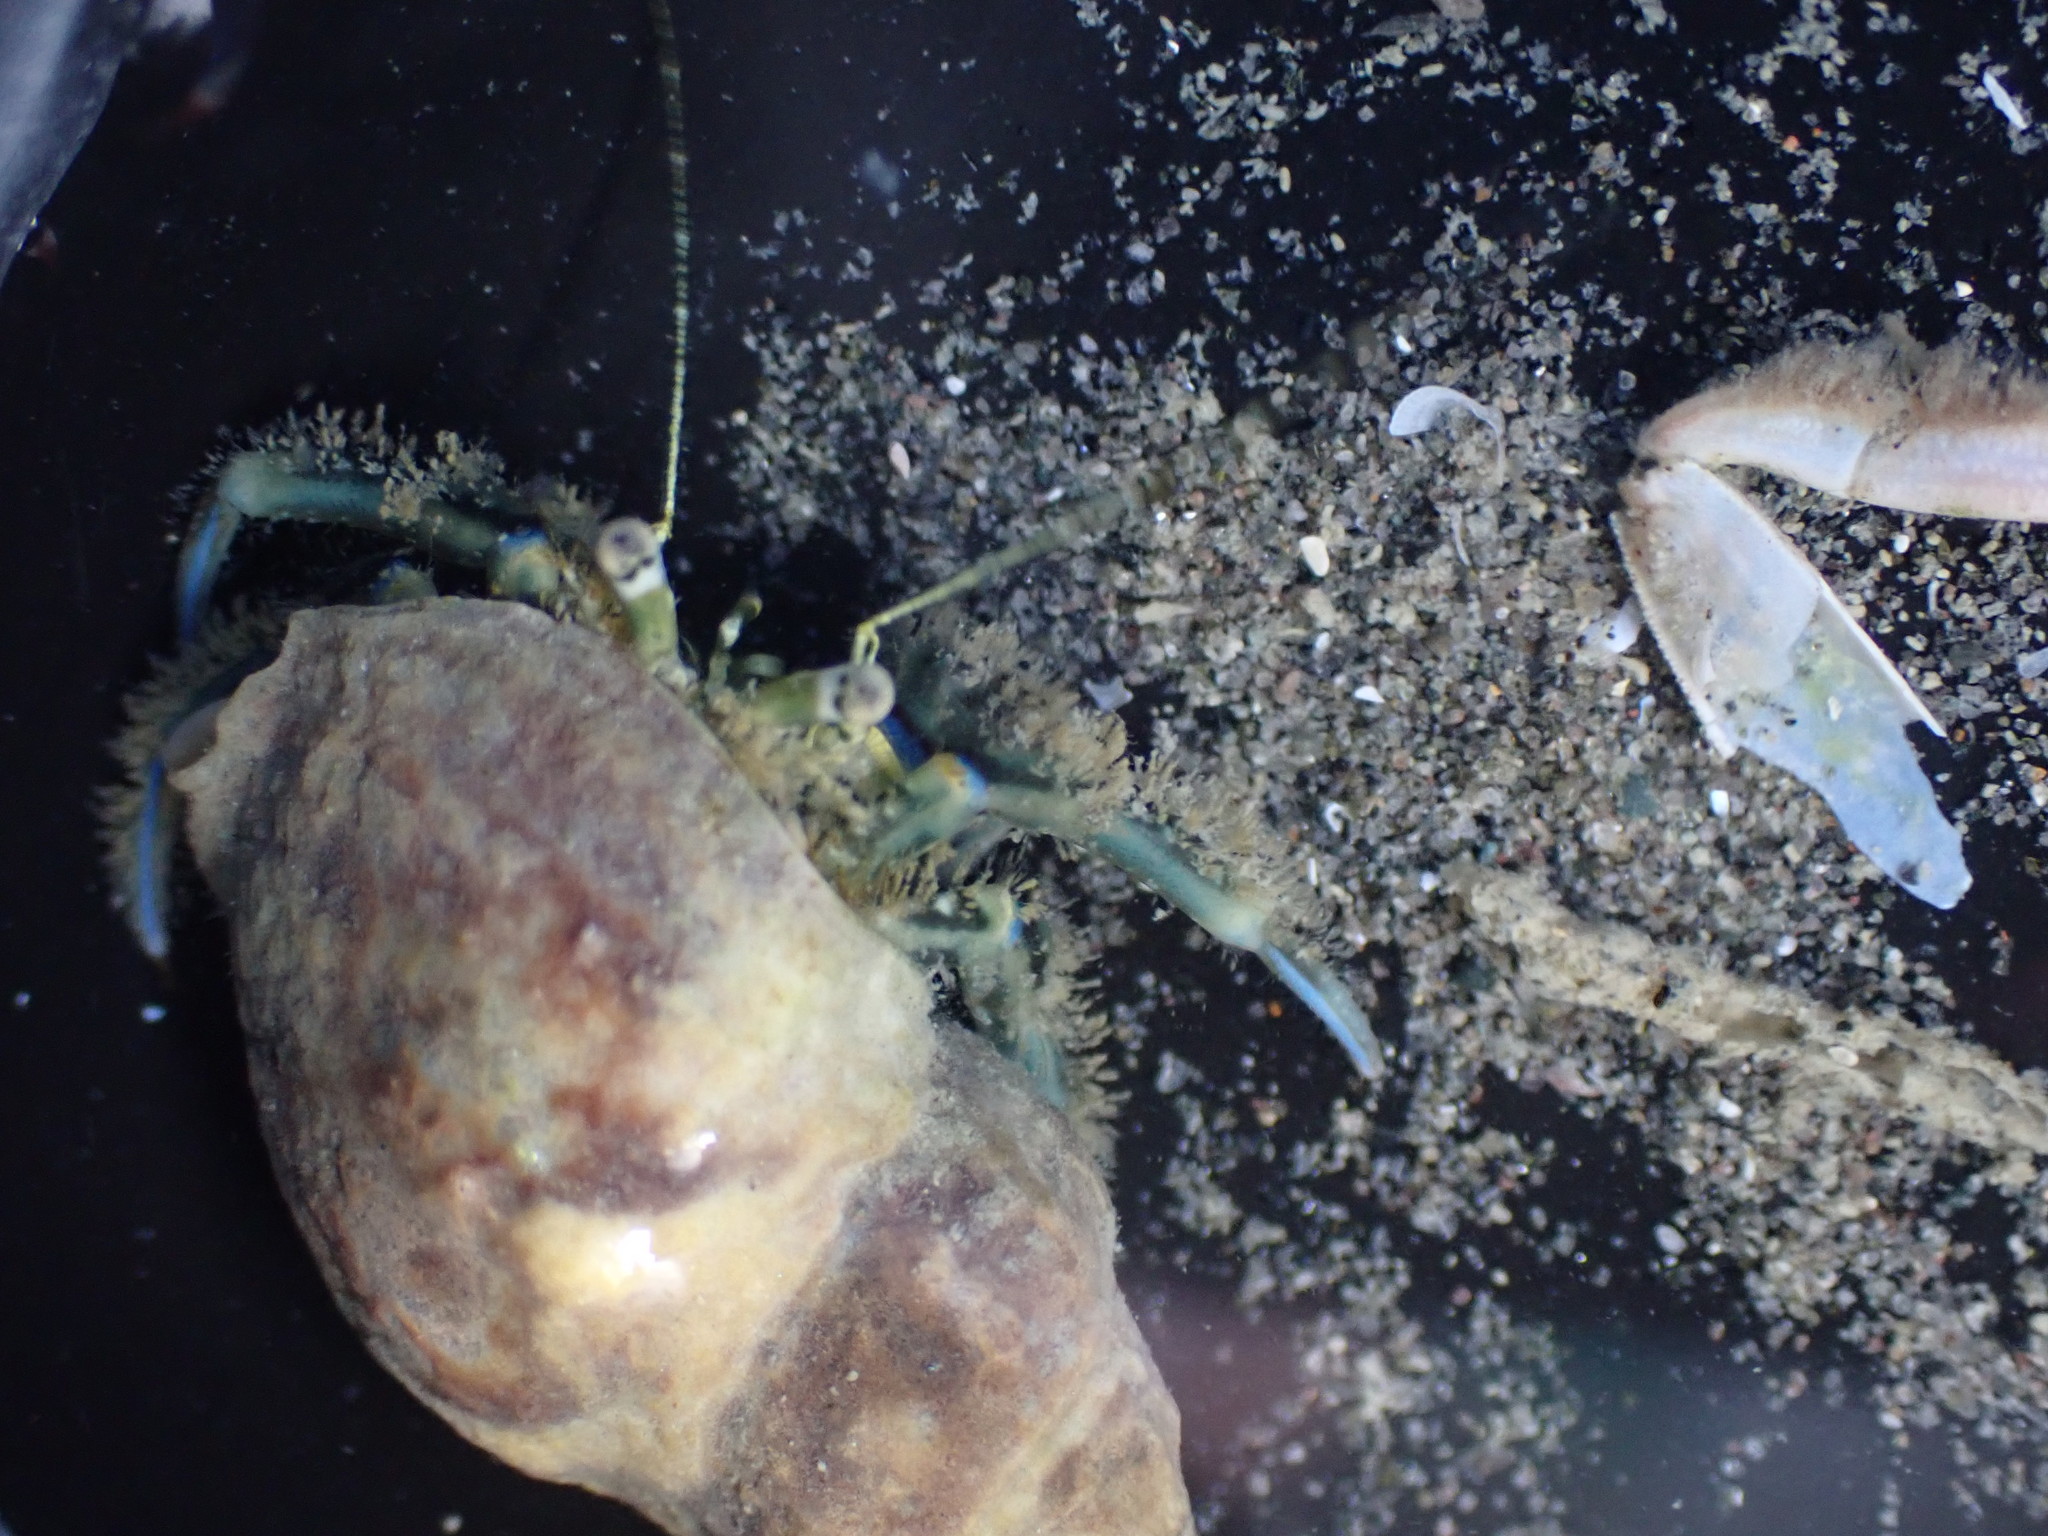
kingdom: Animalia
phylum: Arthropoda
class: Malacostraca
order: Decapoda
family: Paguridae
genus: Pagurus
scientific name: Pagurus novizealandiae
